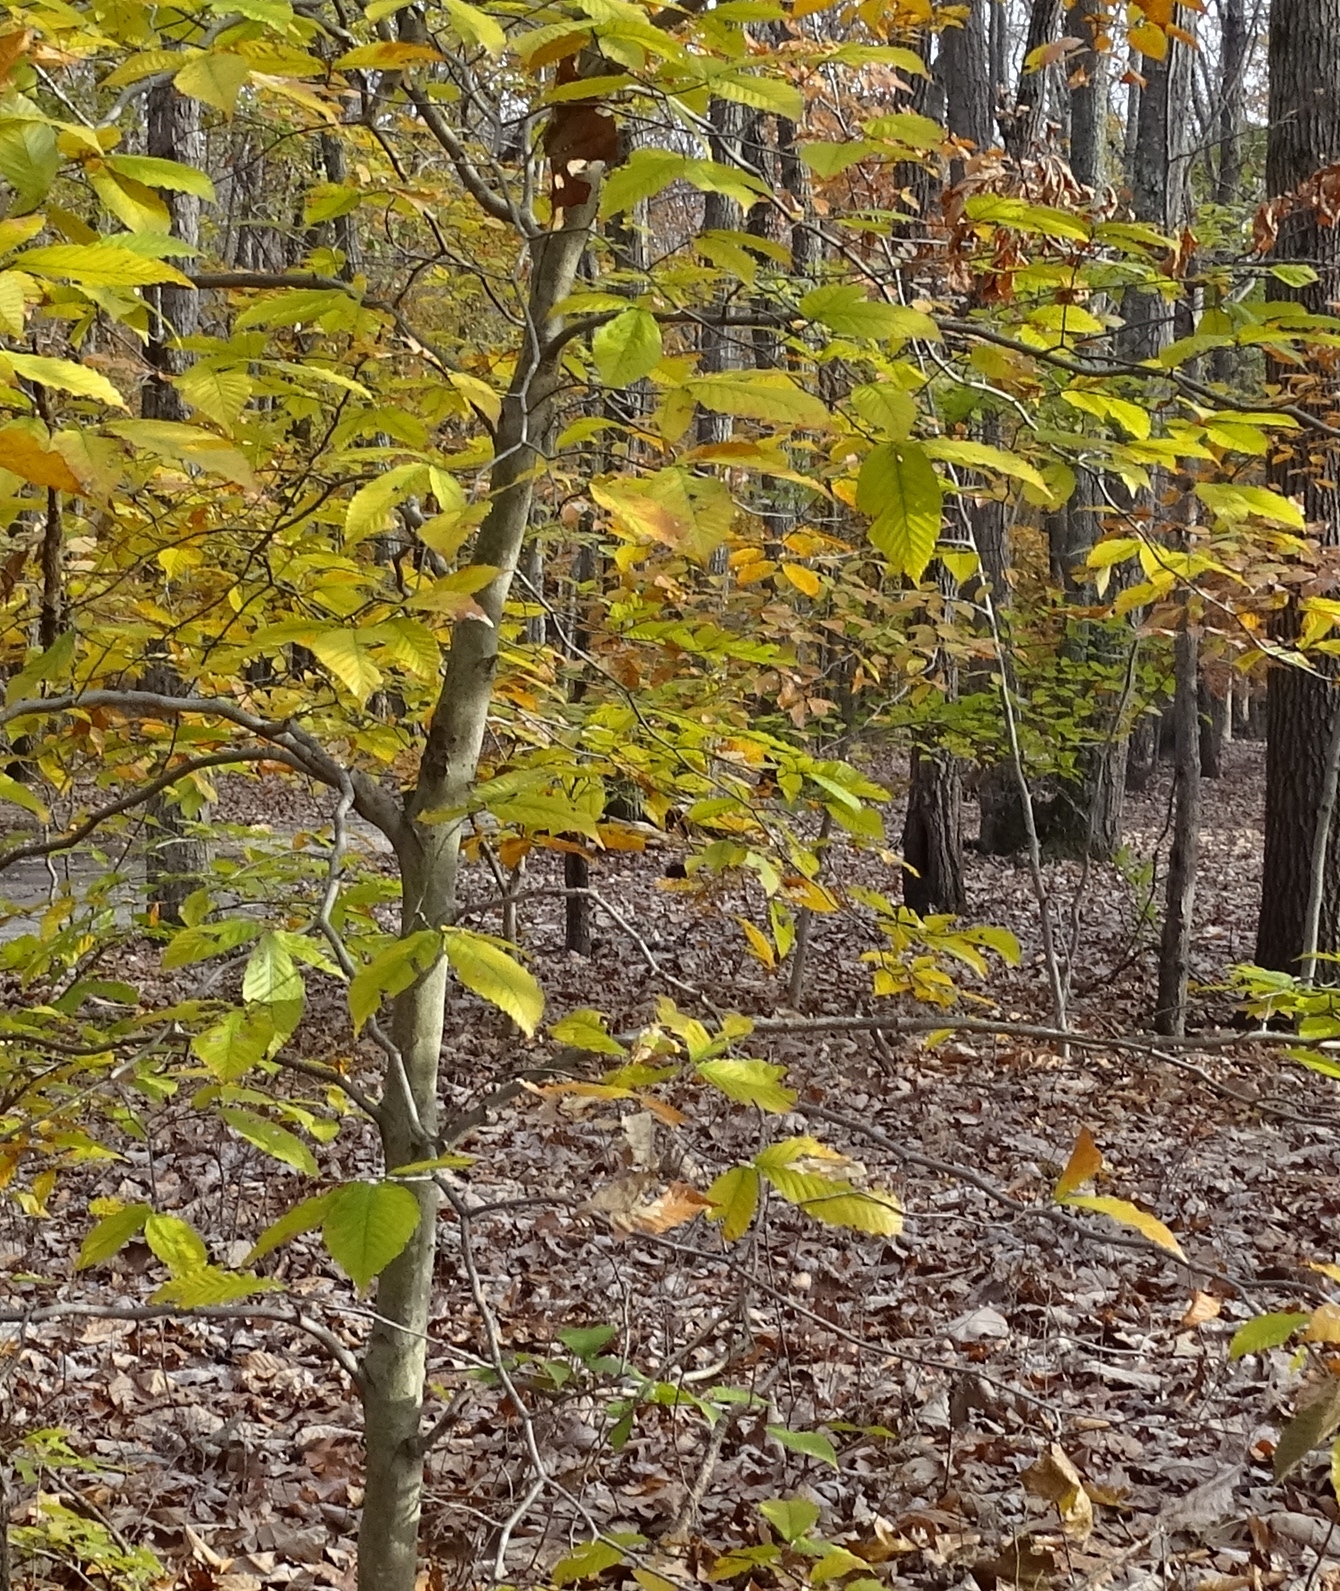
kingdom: Plantae
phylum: Tracheophyta
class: Magnoliopsida
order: Fagales
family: Fagaceae
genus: Fagus
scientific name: Fagus grandifolia
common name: American beech
